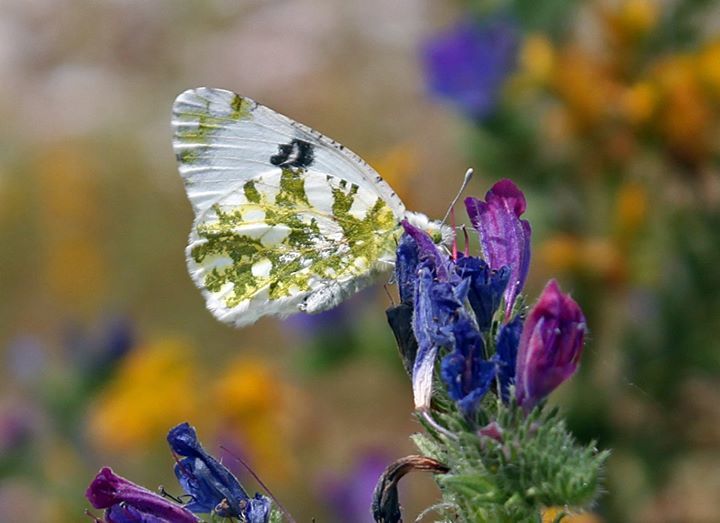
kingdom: Animalia
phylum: Arthropoda
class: Insecta
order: Lepidoptera
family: Pieridae
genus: Euchloe
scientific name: Euchloe ausonia
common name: Eastern dappled white
